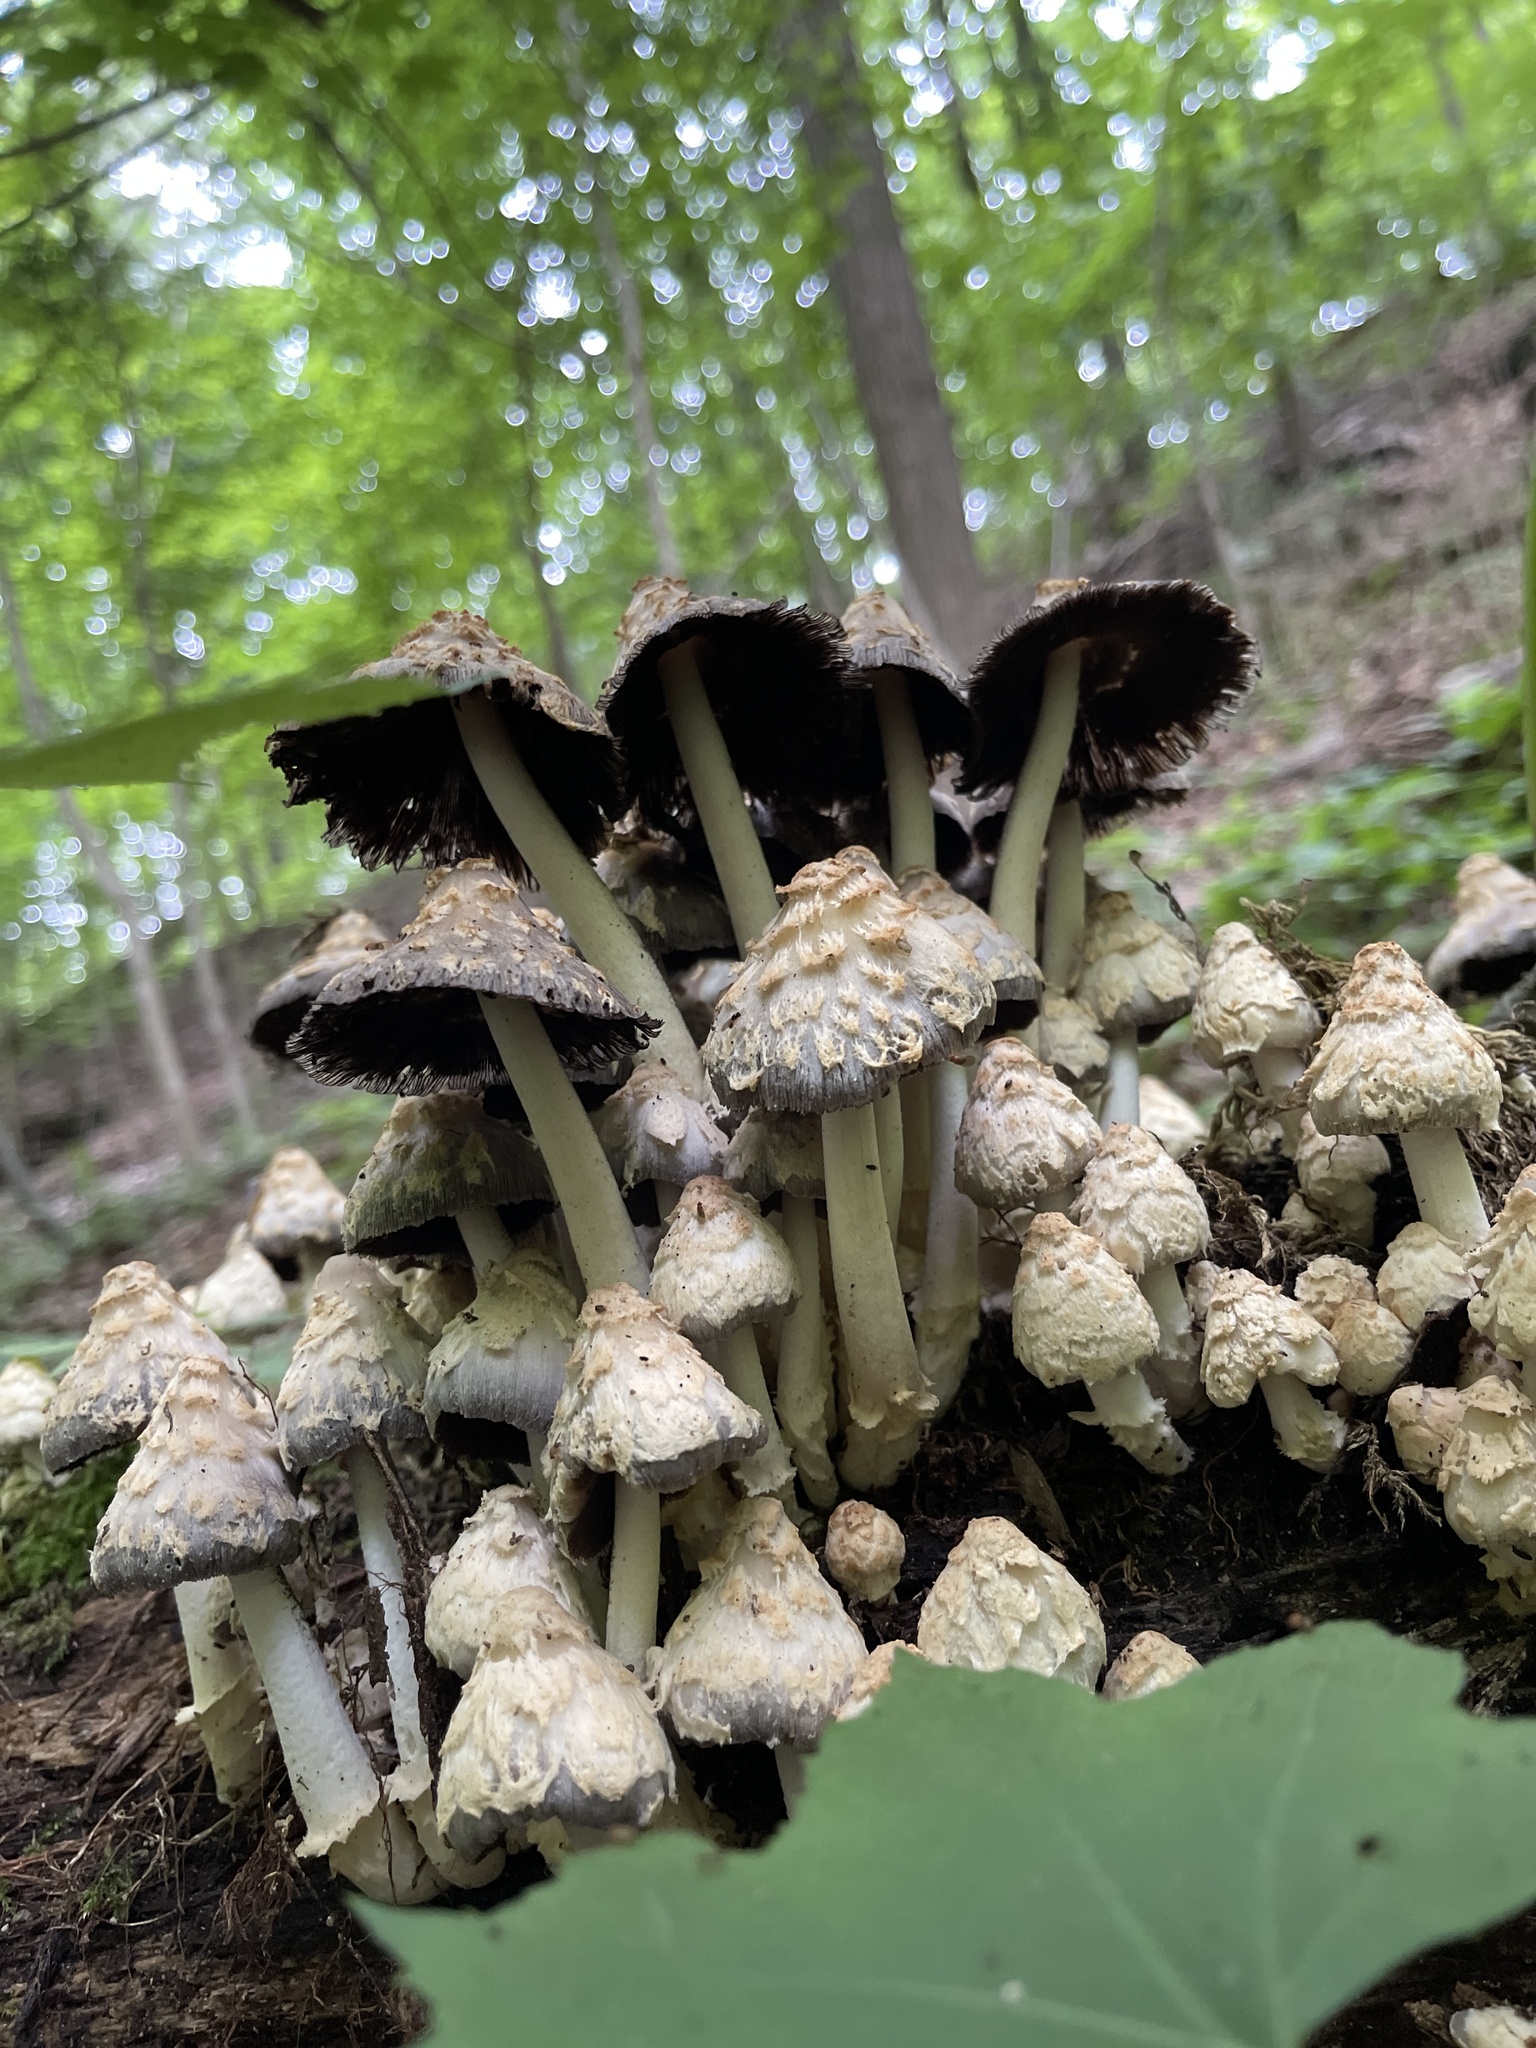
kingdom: Fungi
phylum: Basidiomycota
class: Agaricomycetes
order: Agaricales
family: Psathyrellaceae
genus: Coprinopsis
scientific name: Coprinopsis variegata
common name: Scaly ink cap
